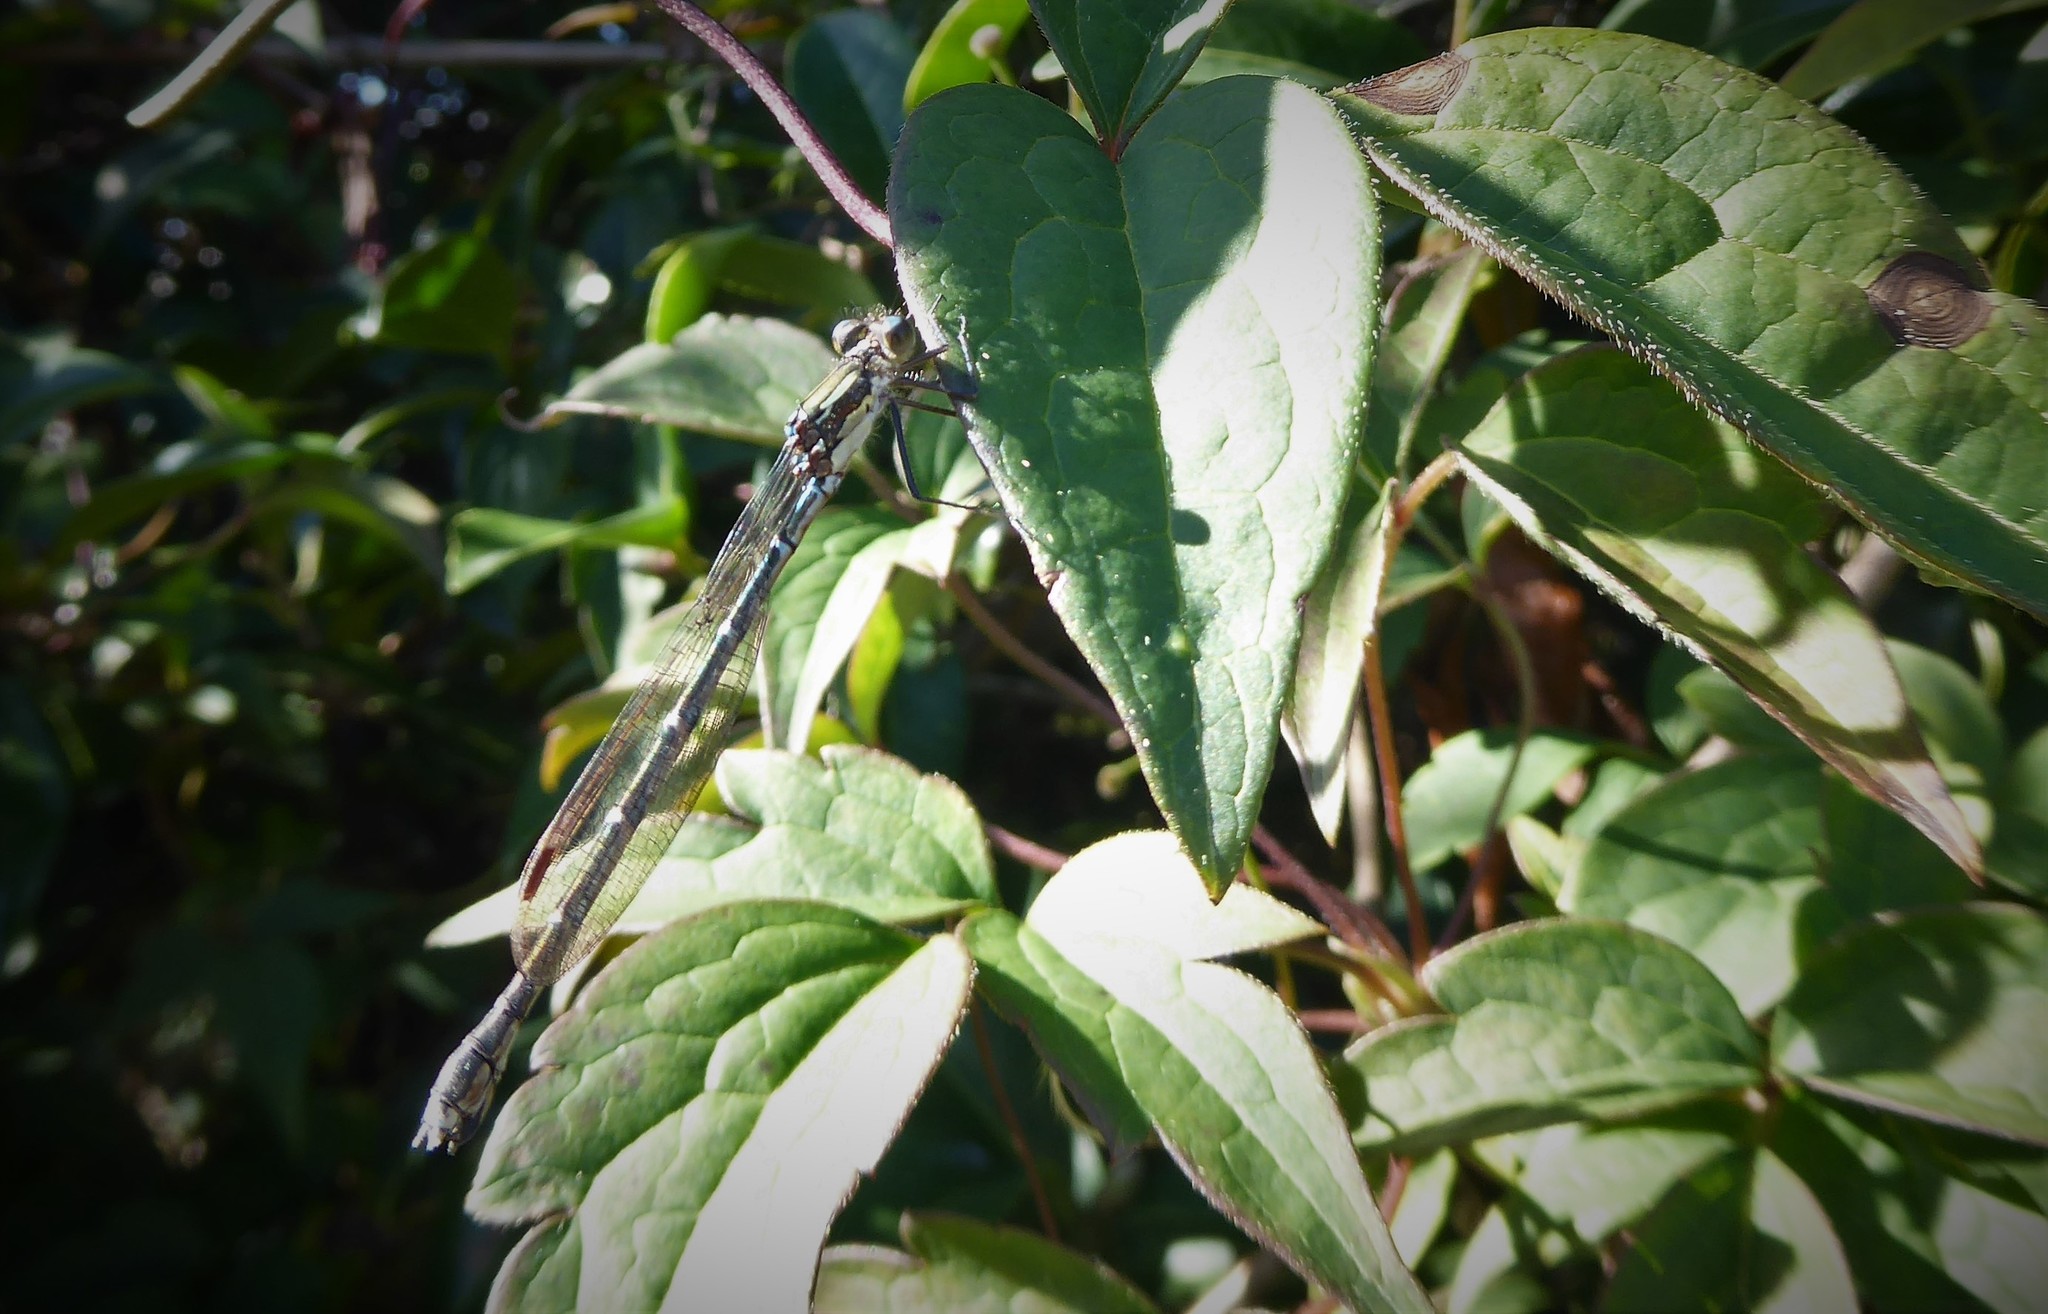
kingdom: Animalia
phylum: Arthropoda
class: Insecta
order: Odonata
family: Lestidae
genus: Austrolestes
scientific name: Austrolestes colensonis
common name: Blue damselfly
